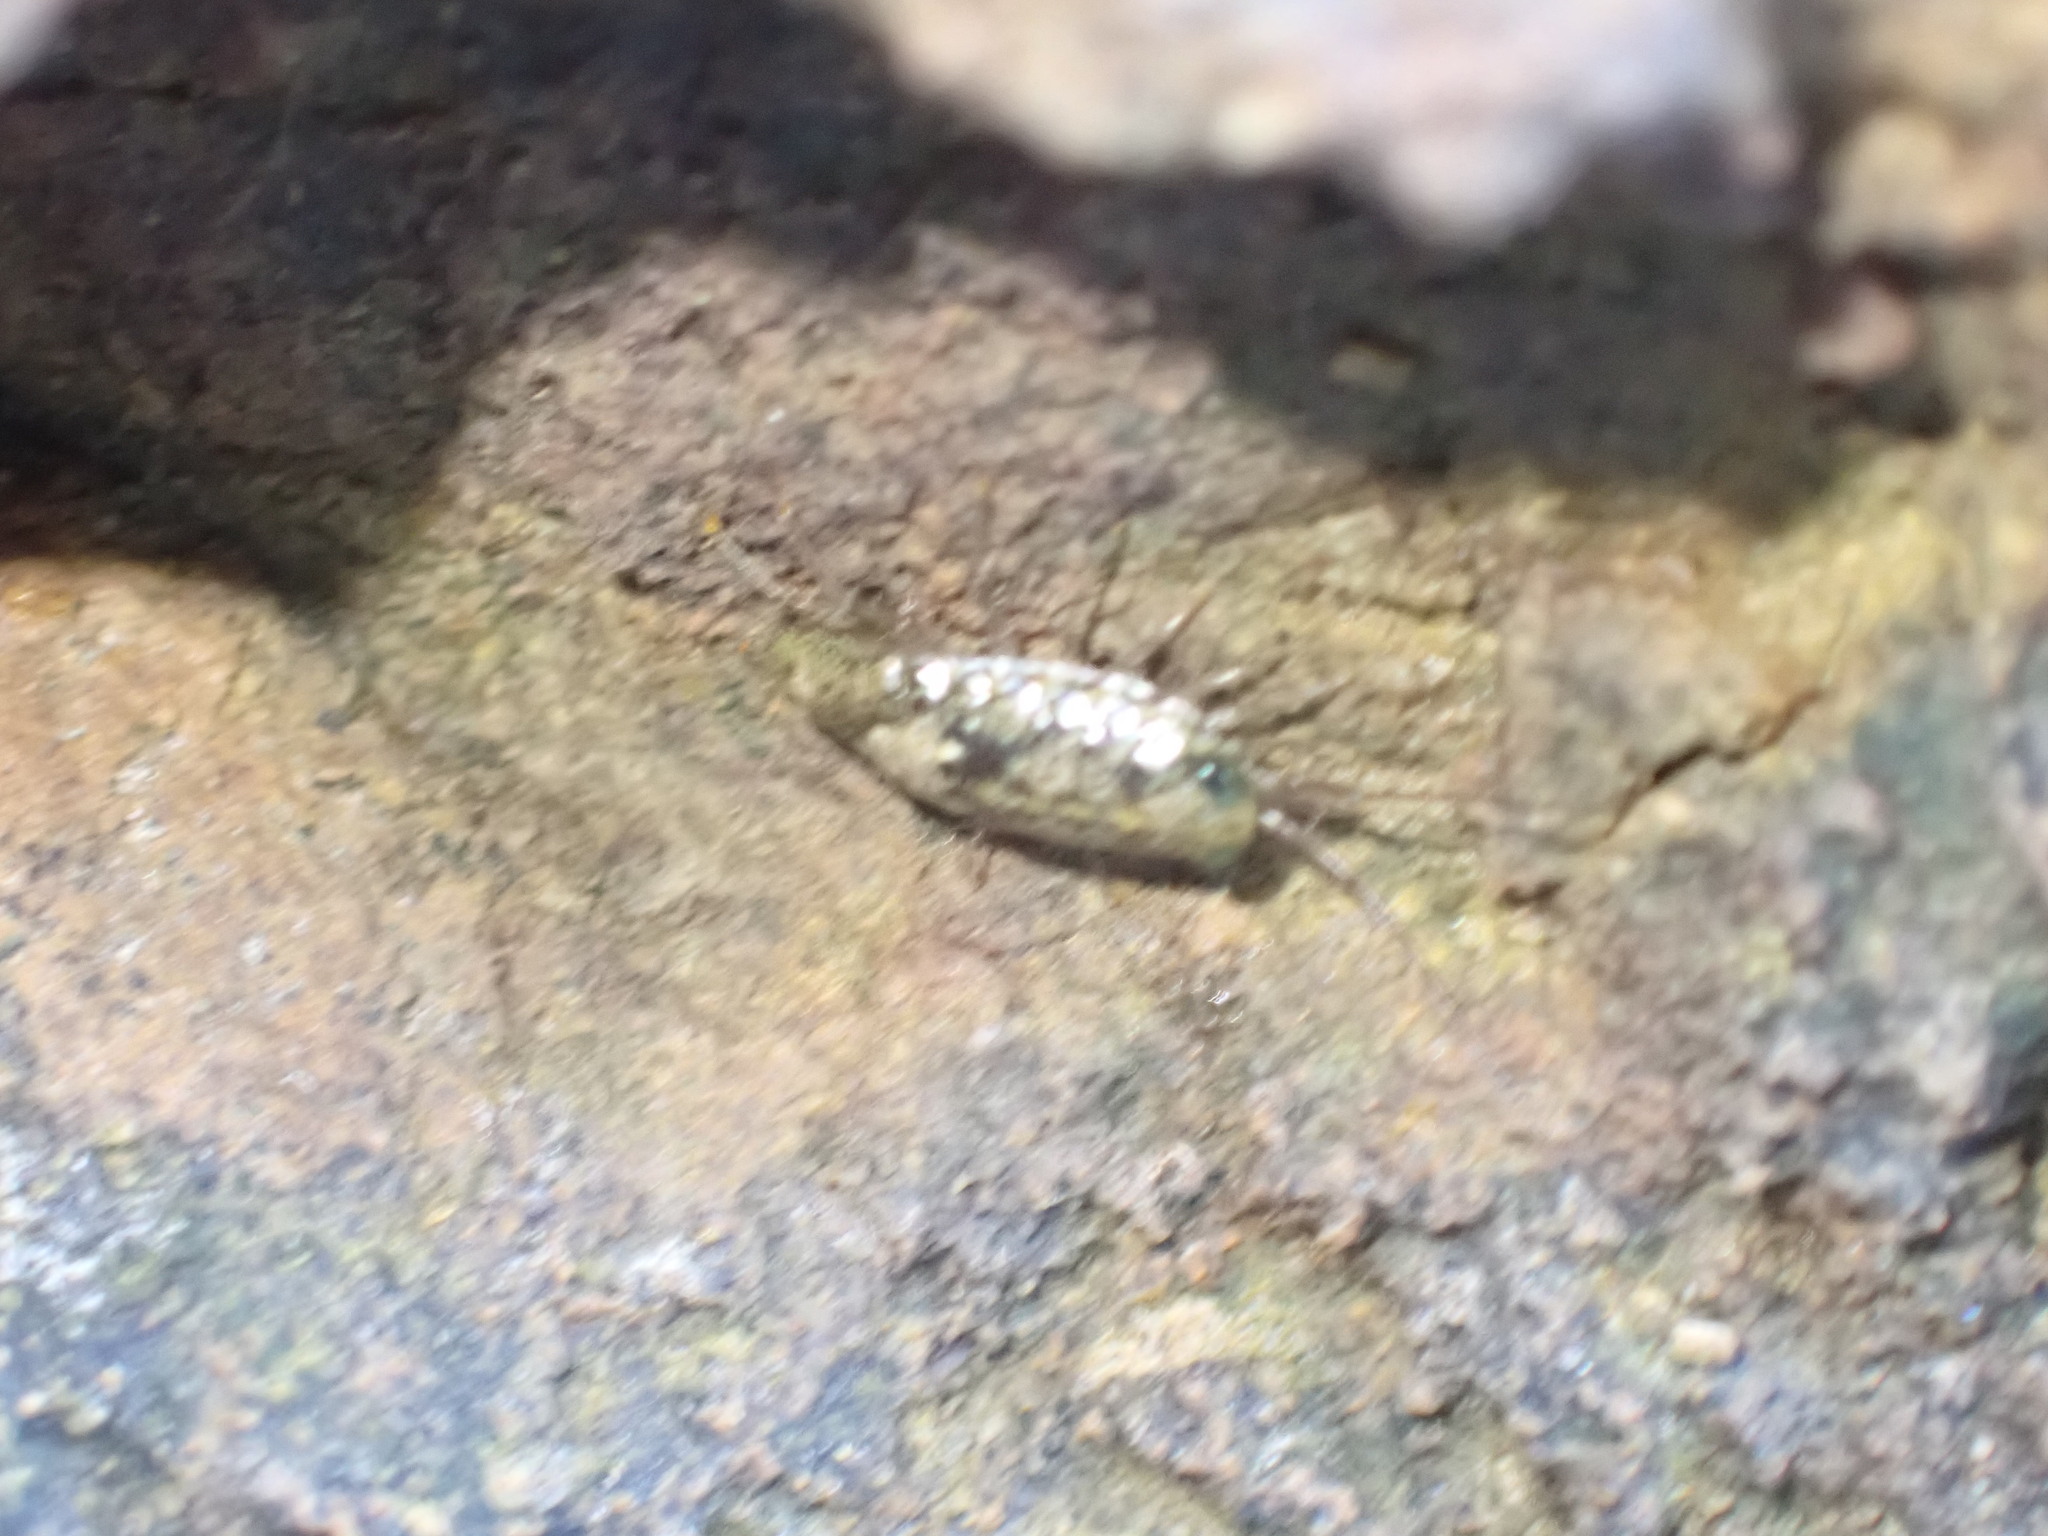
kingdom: Animalia
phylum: Arthropoda
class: Malacostraca
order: Isopoda
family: Ligiidae
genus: Ligia
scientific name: Ligia italica
